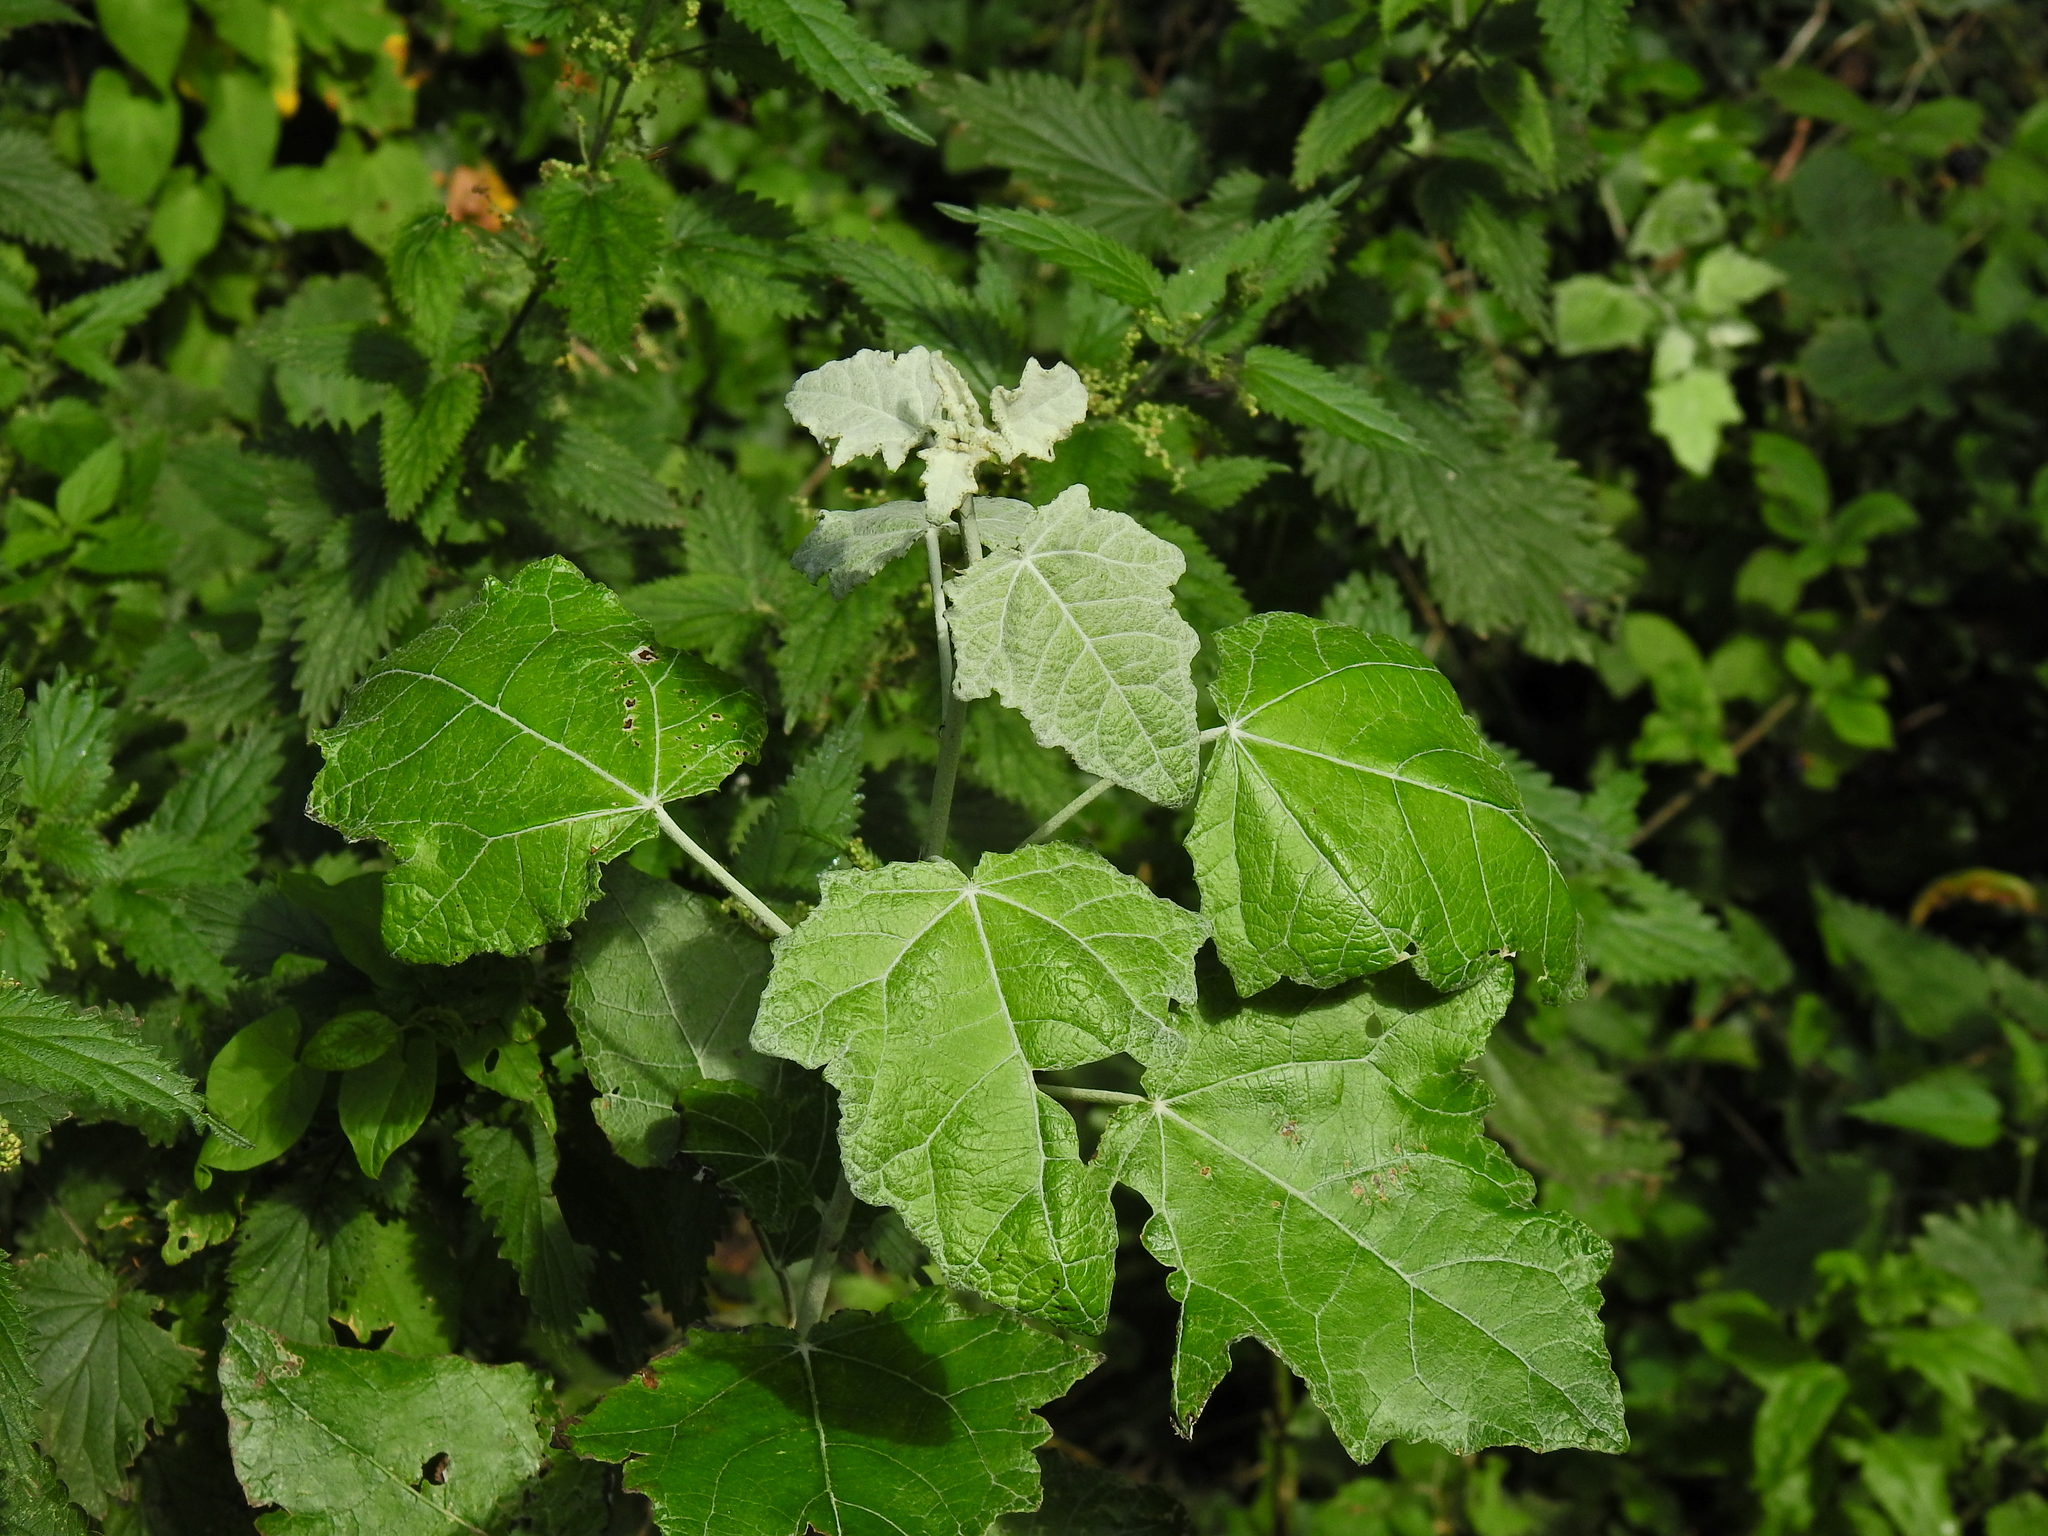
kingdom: Plantae
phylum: Tracheophyta
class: Magnoliopsida
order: Malpighiales
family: Salicaceae
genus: Populus
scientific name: Populus alba
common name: White poplar
